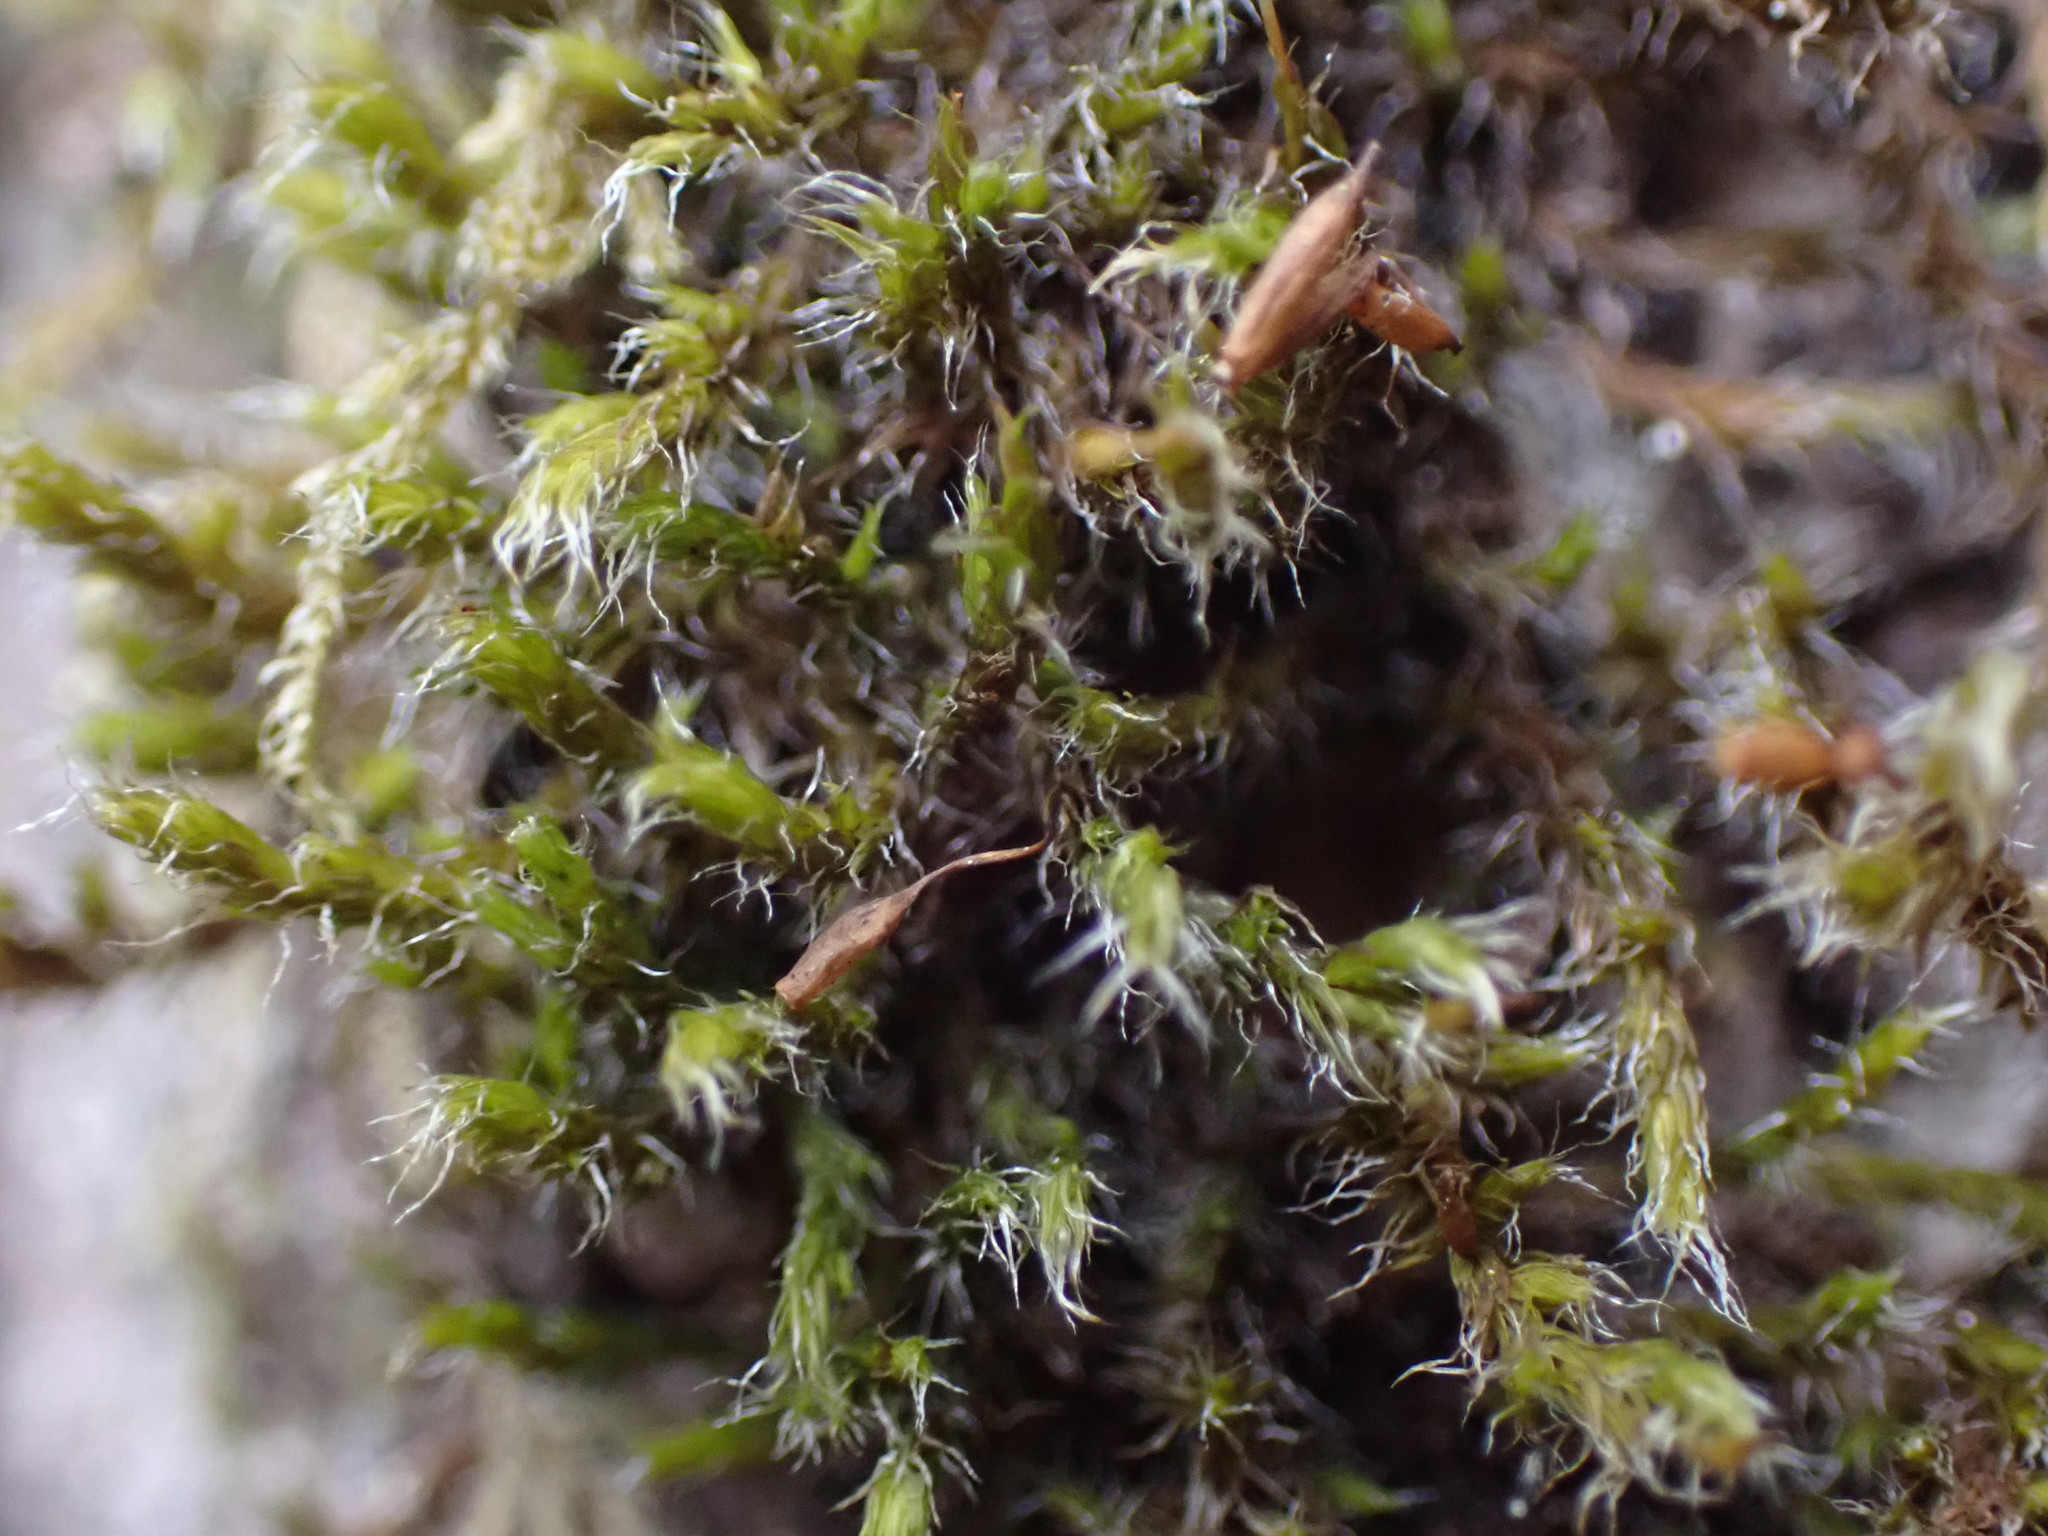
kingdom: Plantae
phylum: Bryophyta
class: Bryopsida
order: Grimmiales
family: Grimmiaceae
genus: Bucklandiella
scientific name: Bucklandiella heterosticha
